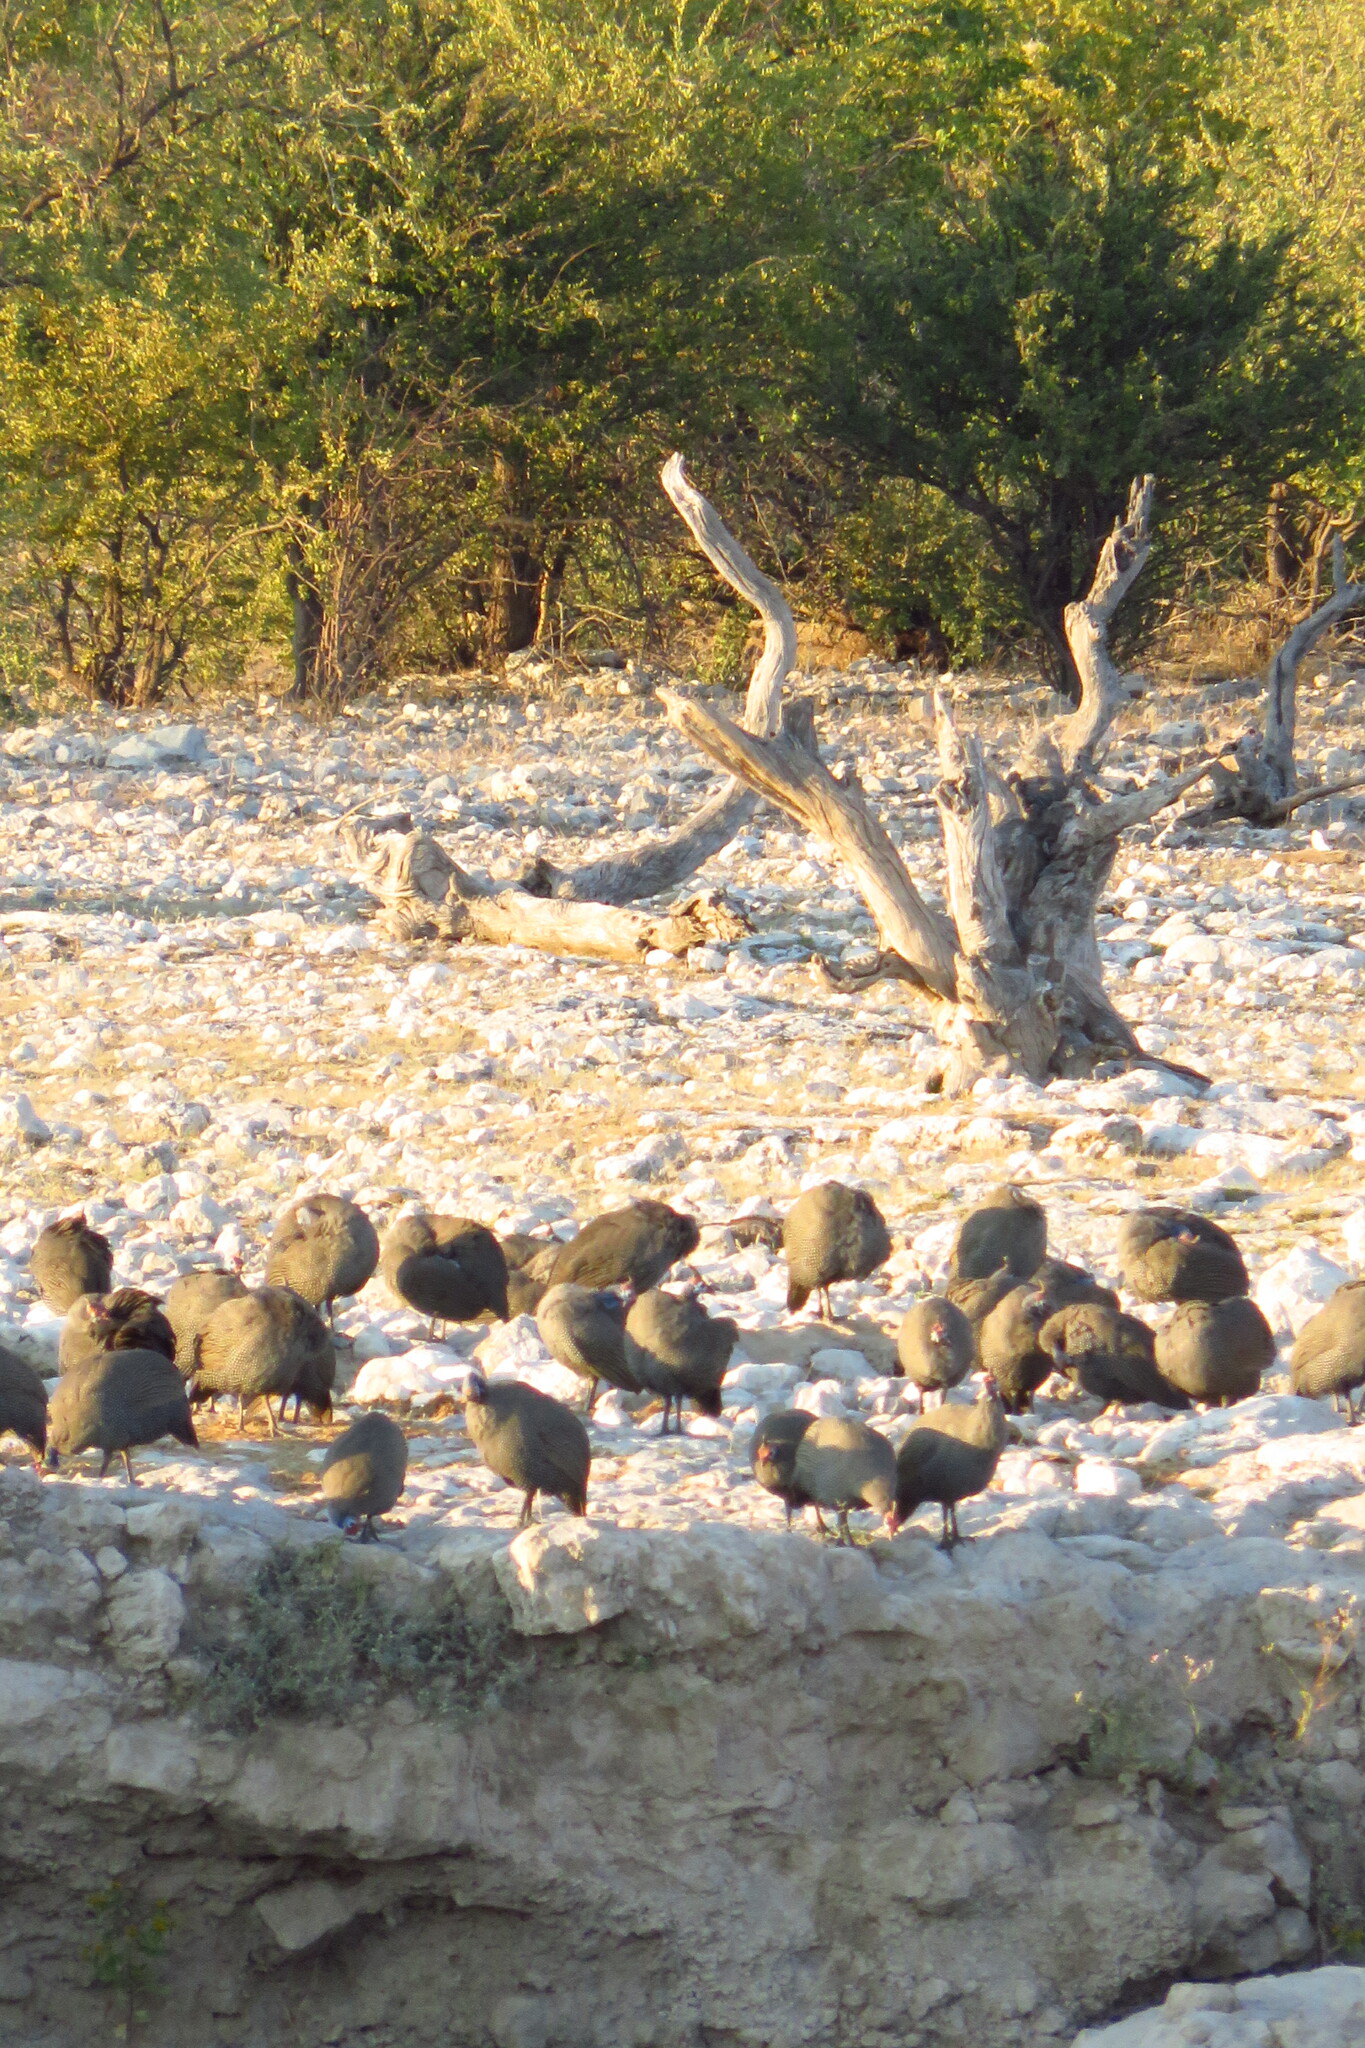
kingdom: Animalia
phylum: Chordata
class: Aves
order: Galliformes
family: Numididae
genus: Numida
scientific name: Numida meleagris
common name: Helmeted guineafowl
